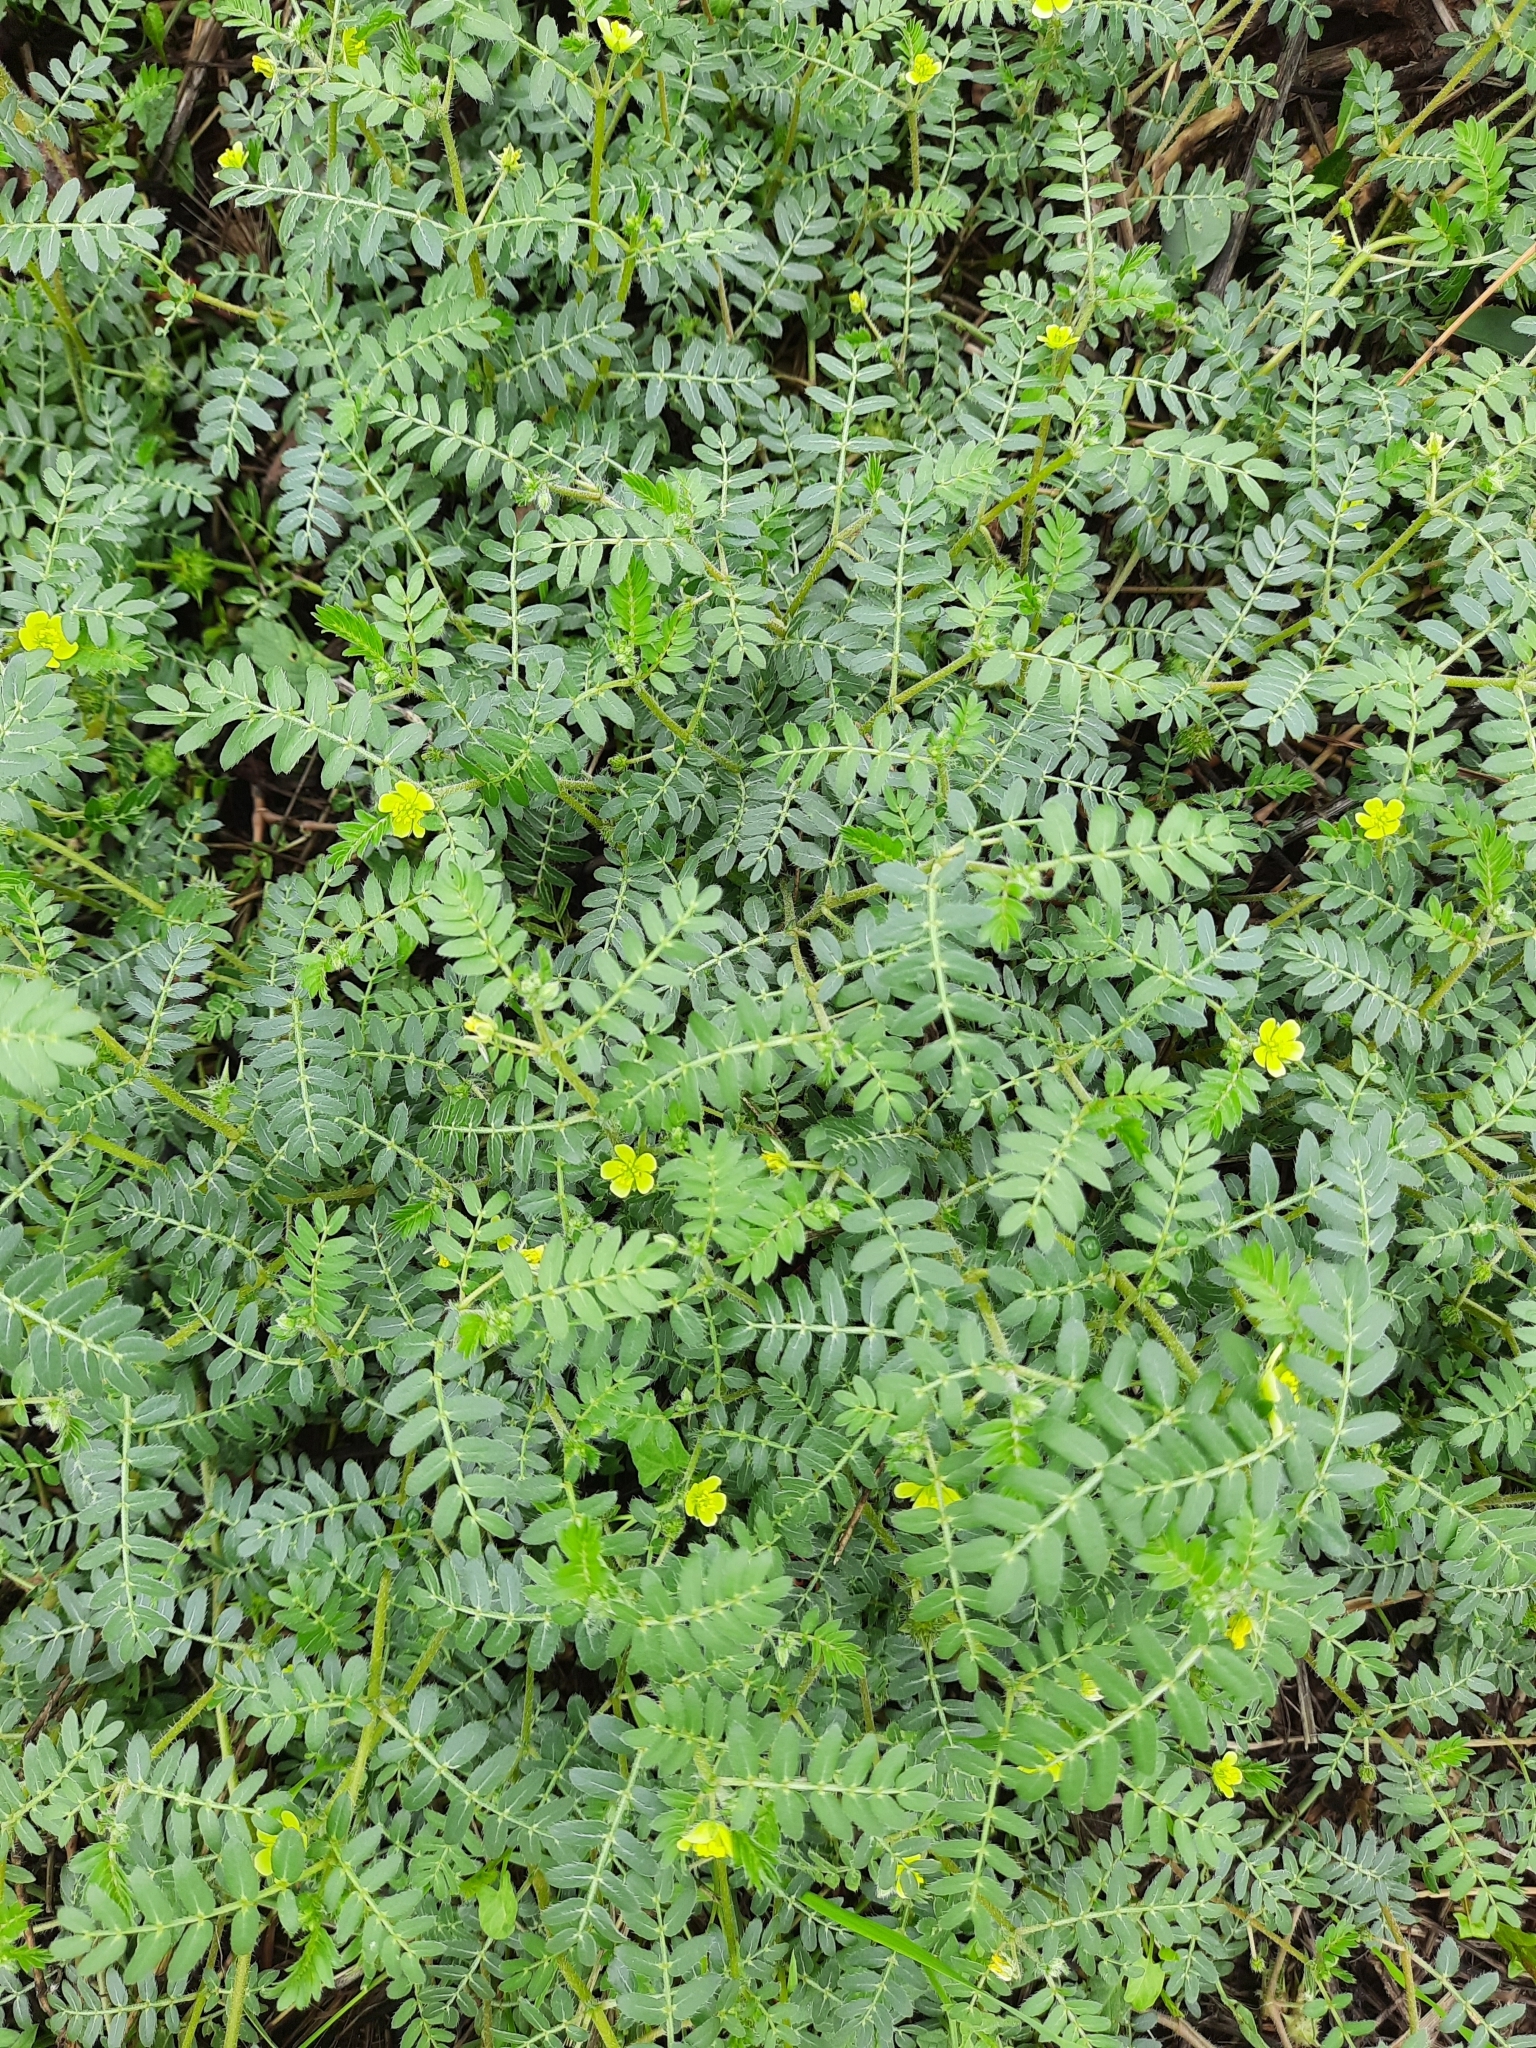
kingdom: Plantae
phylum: Tracheophyta
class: Magnoliopsida
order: Zygophyllales
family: Zygophyllaceae
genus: Tribulus
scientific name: Tribulus terrestris
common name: Puncturevine
